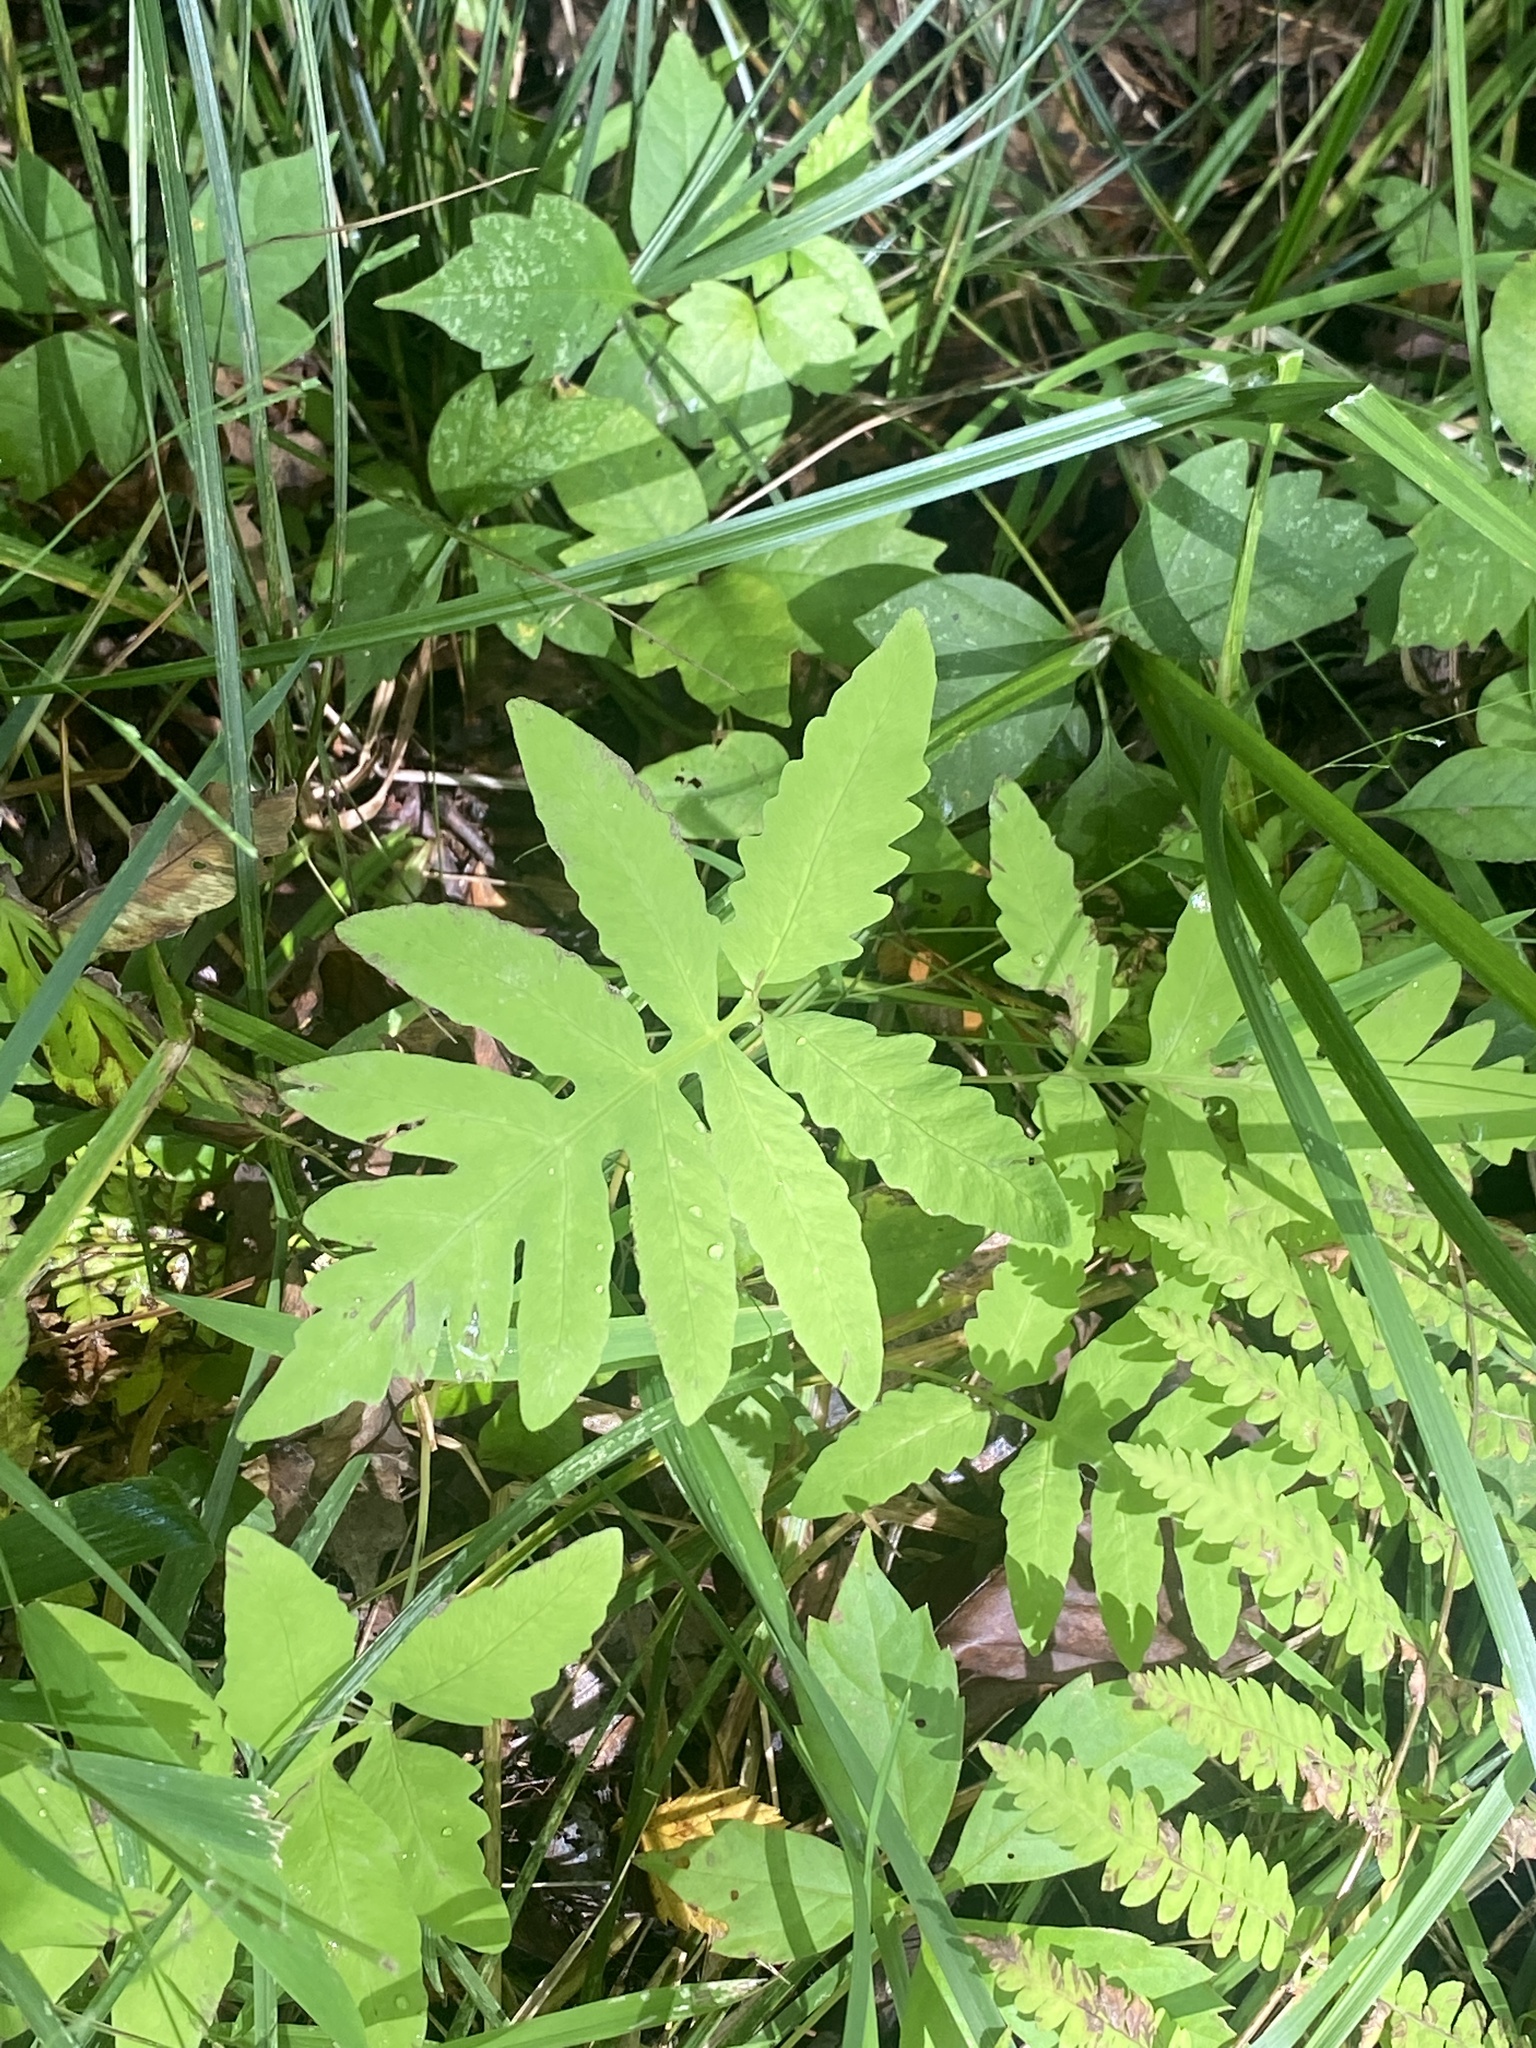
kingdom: Plantae
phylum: Tracheophyta
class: Polypodiopsida
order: Polypodiales
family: Onocleaceae
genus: Onoclea
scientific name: Onoclea sensibilis
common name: Sensitive fern
